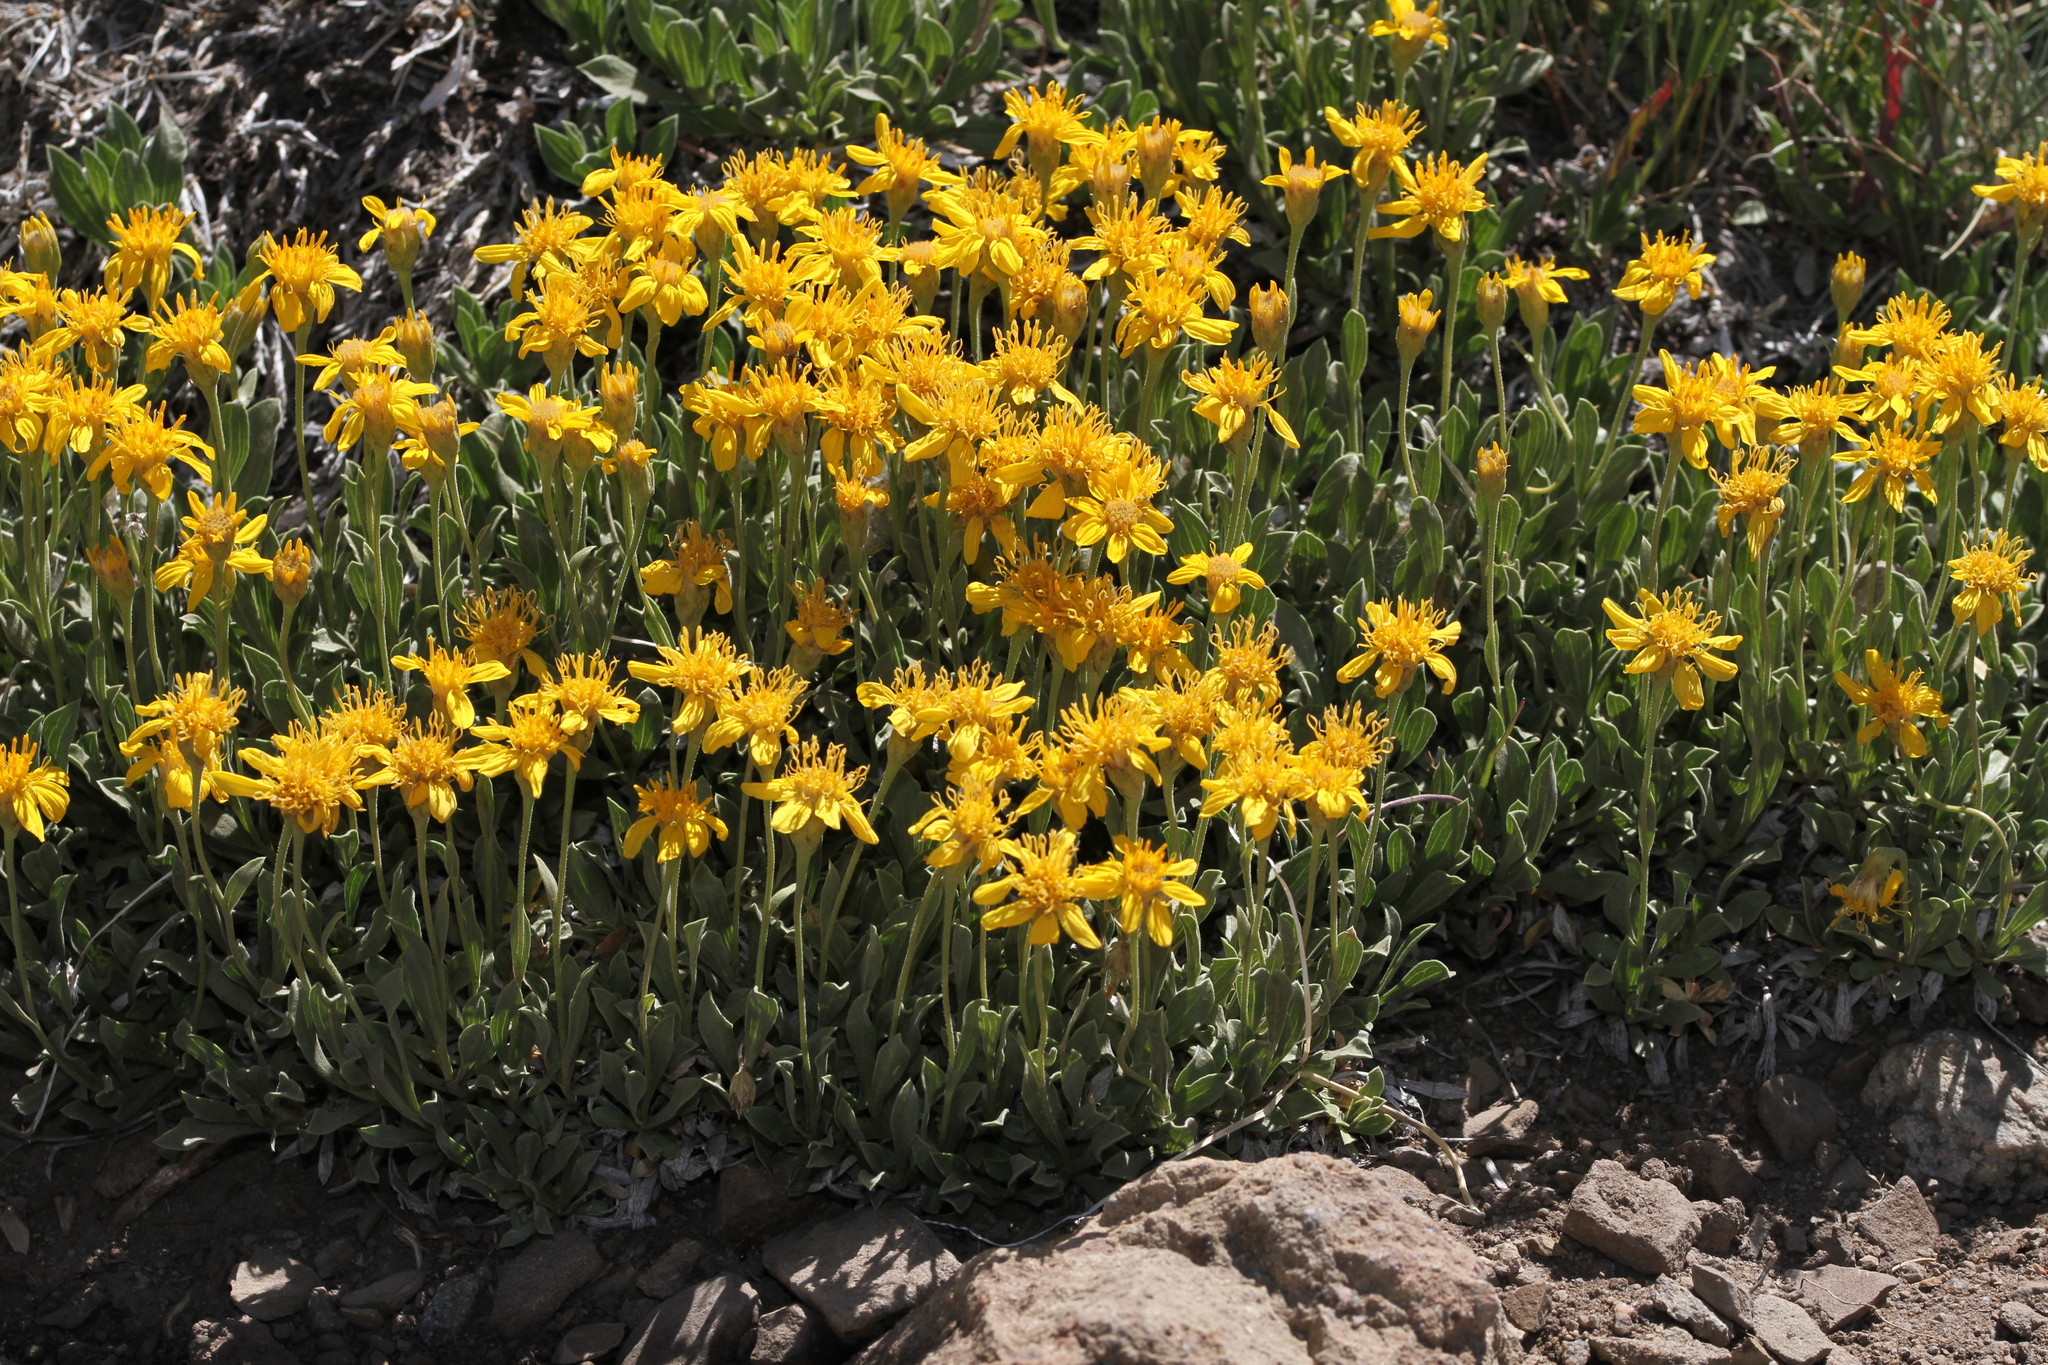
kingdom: Plantae
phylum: Tracheophyta
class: Magnoliopsida
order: Asterales
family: Asteraceae
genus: Stenotus
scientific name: Stenotus acaulis
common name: Stemless goldenweed
